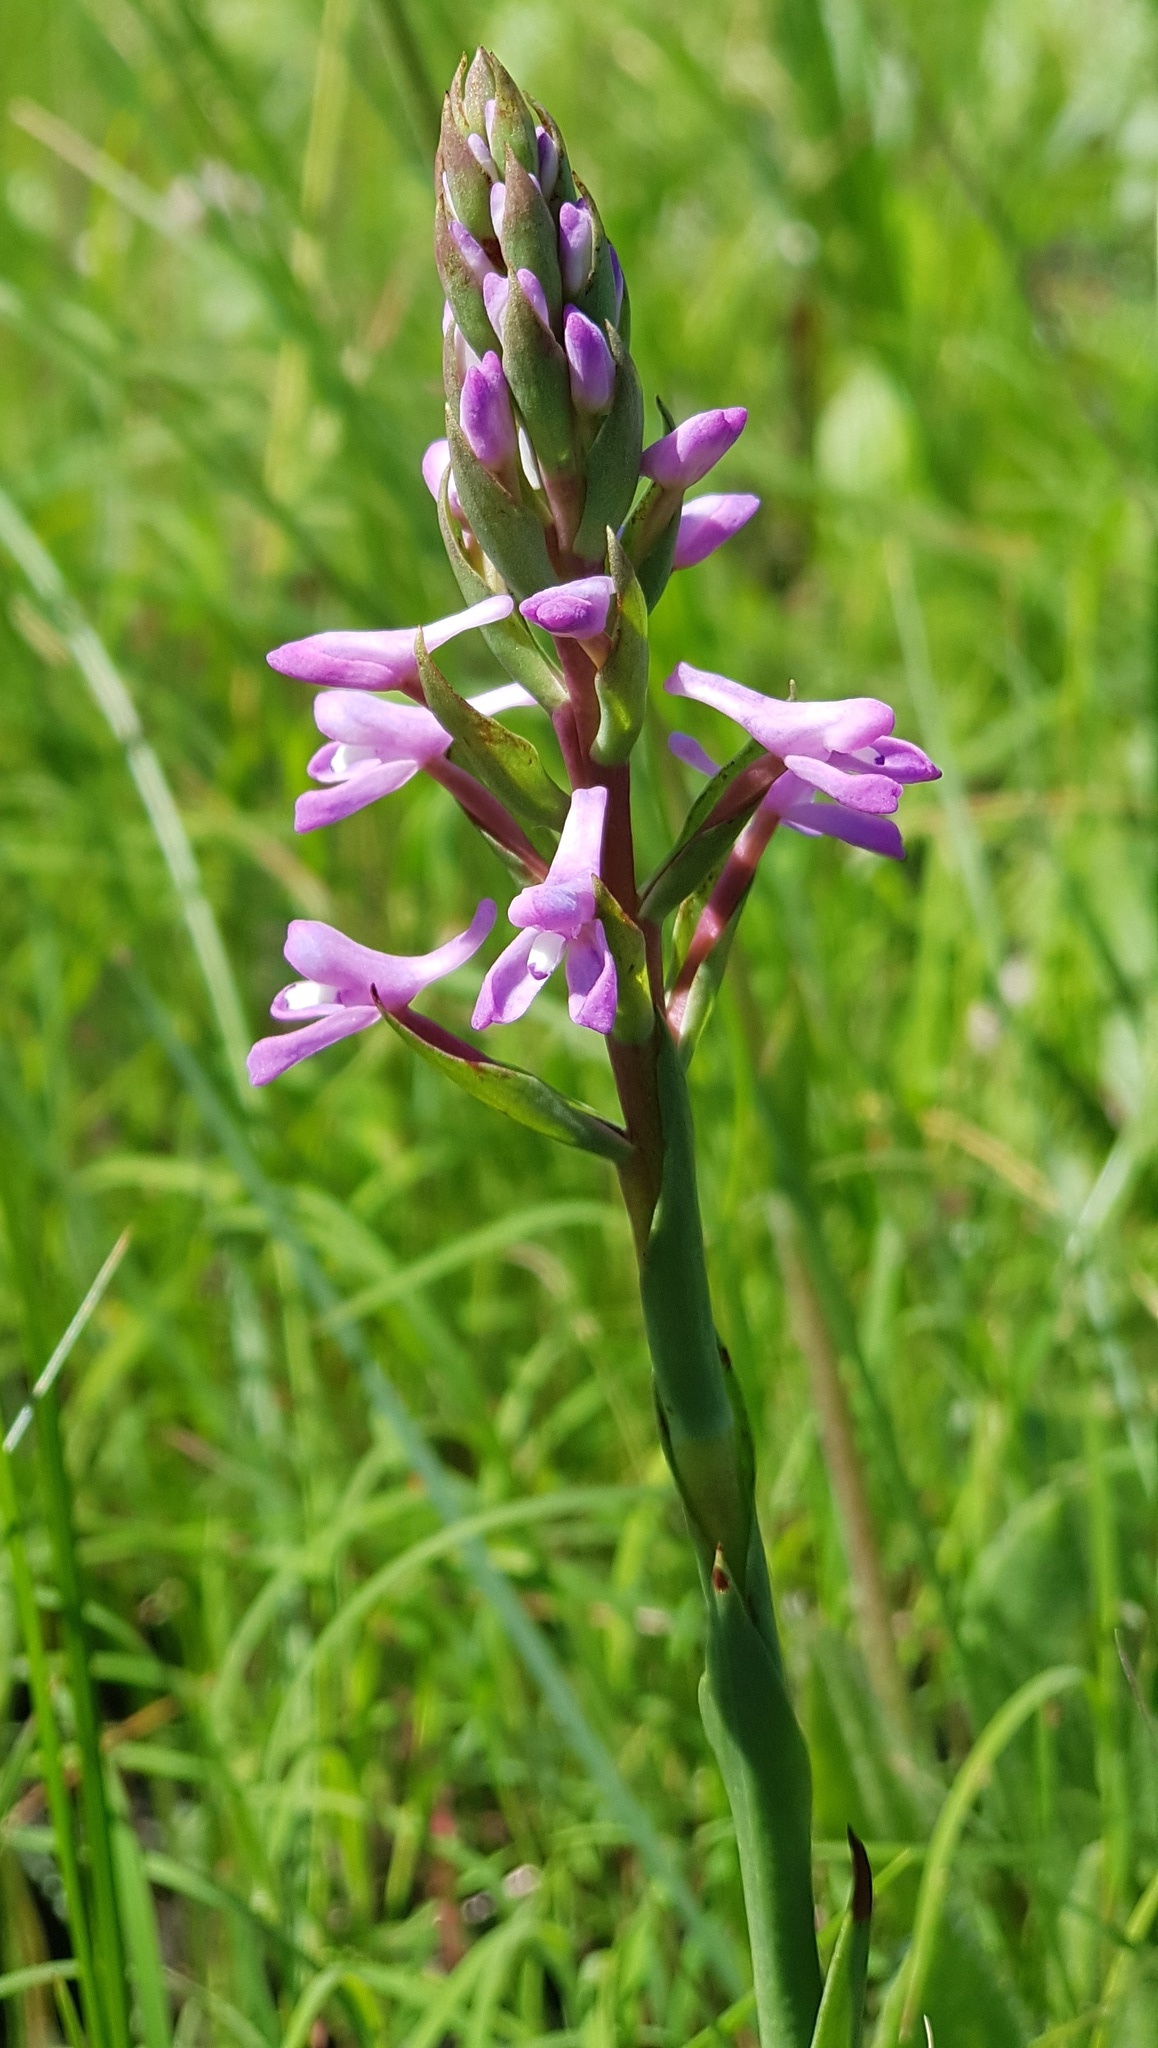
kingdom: Plantae
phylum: Tracheophyta
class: Liliopsida
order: Asparagales
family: Orchidaceae
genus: Disa
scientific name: Disa stachyoides
